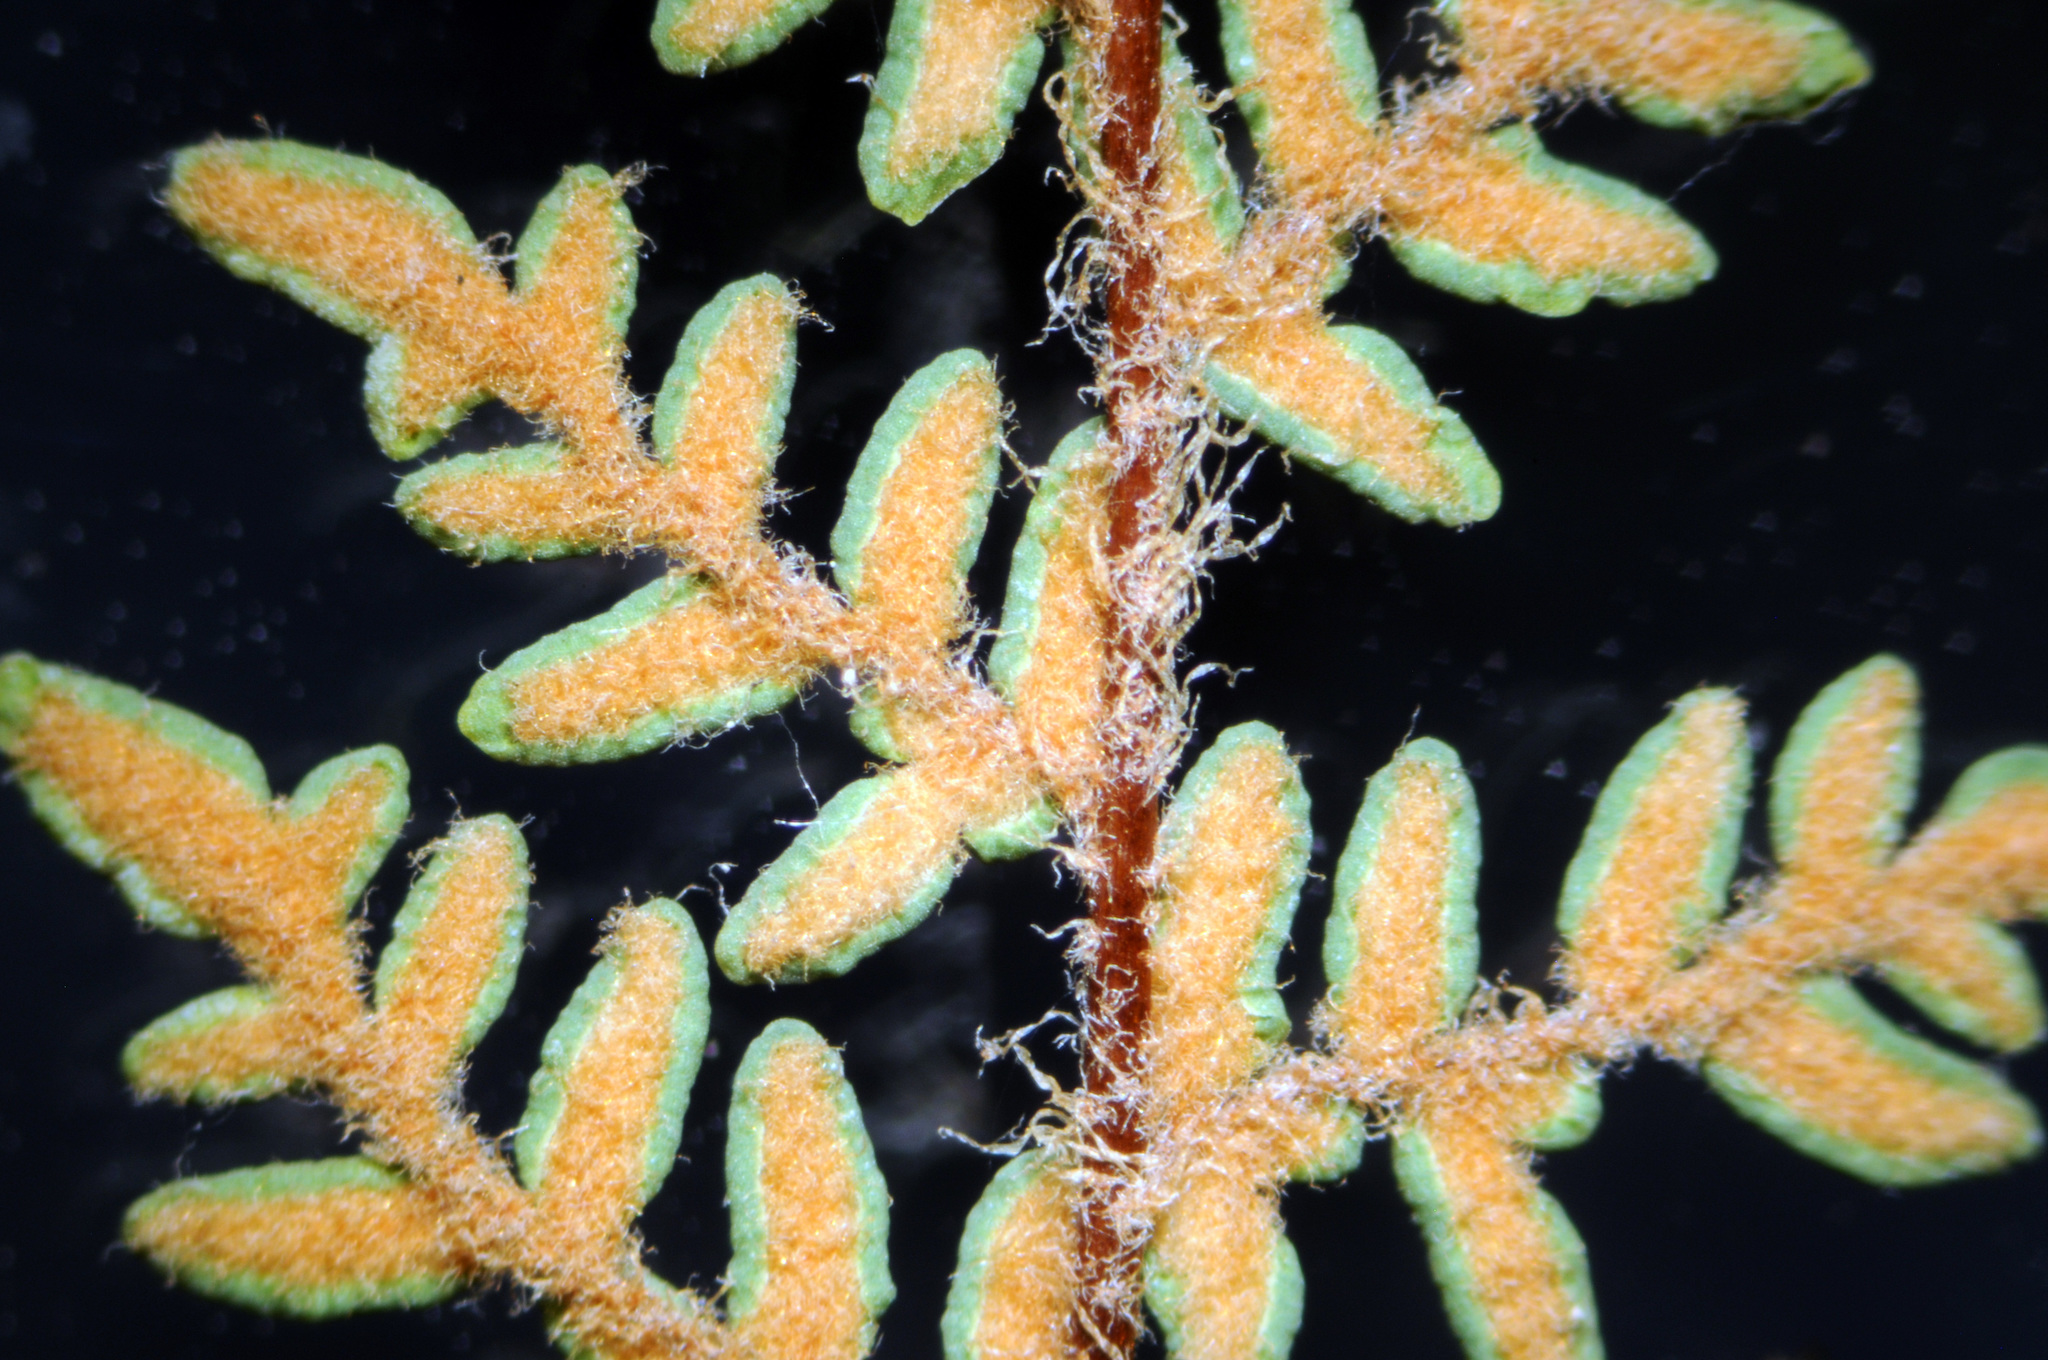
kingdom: Plantae
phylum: Tracheophyta
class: Polypodiopsida
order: Polypodiales
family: Pteridaceae
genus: Myriopteris
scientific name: Myriopteris gracillima
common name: Lace fern
